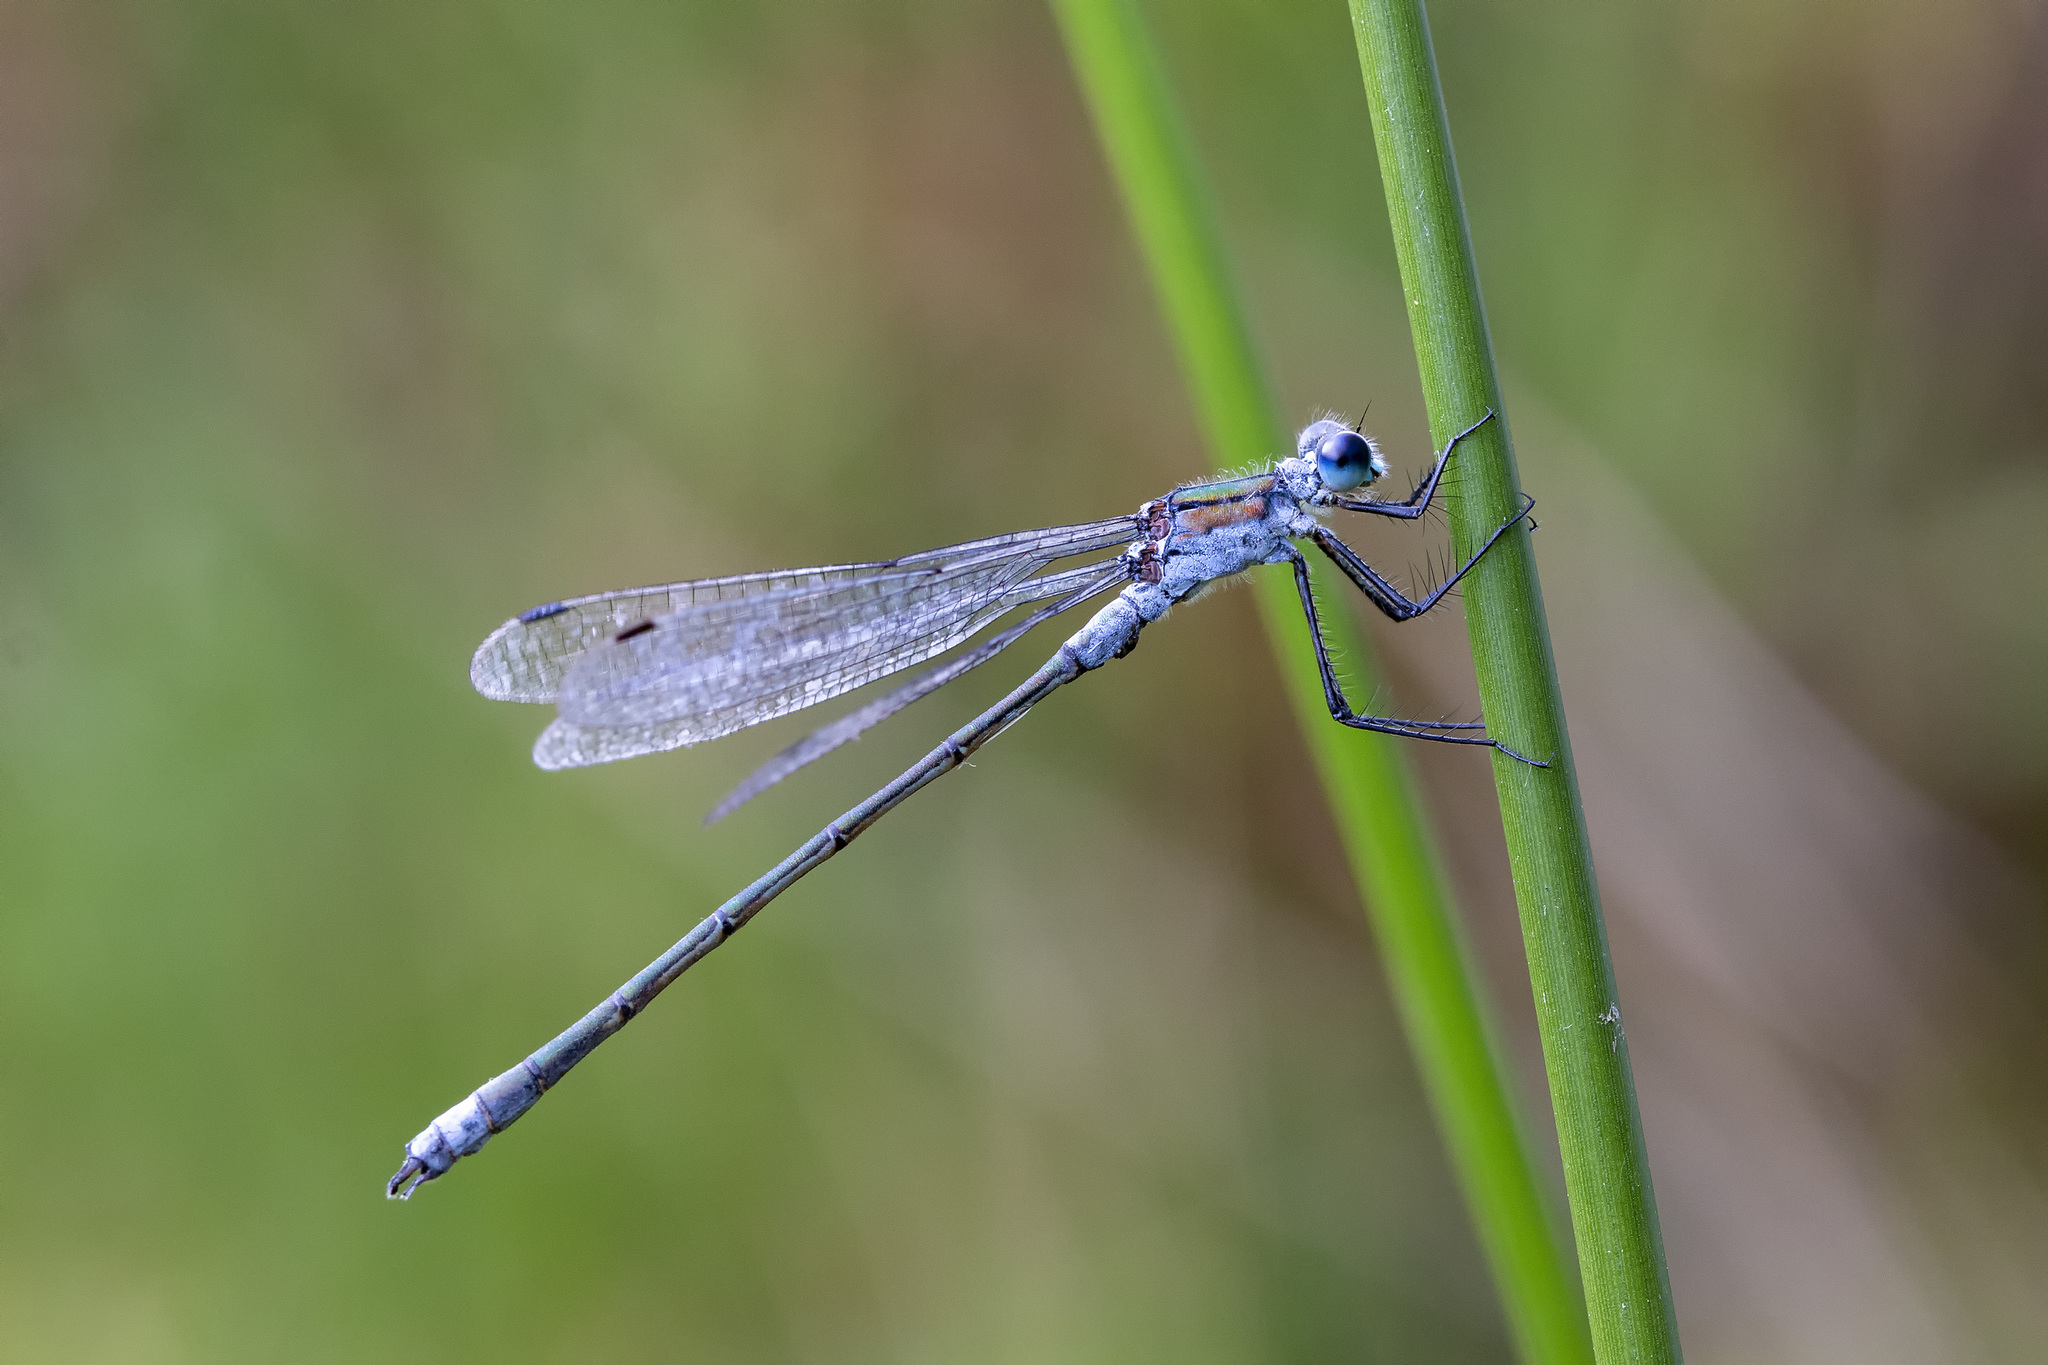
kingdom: Animalia
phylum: Arthropoda
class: Insecta
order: Odonata
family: Lestidae
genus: Lestes
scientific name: Lestes sponsa
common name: Common spreadwing
